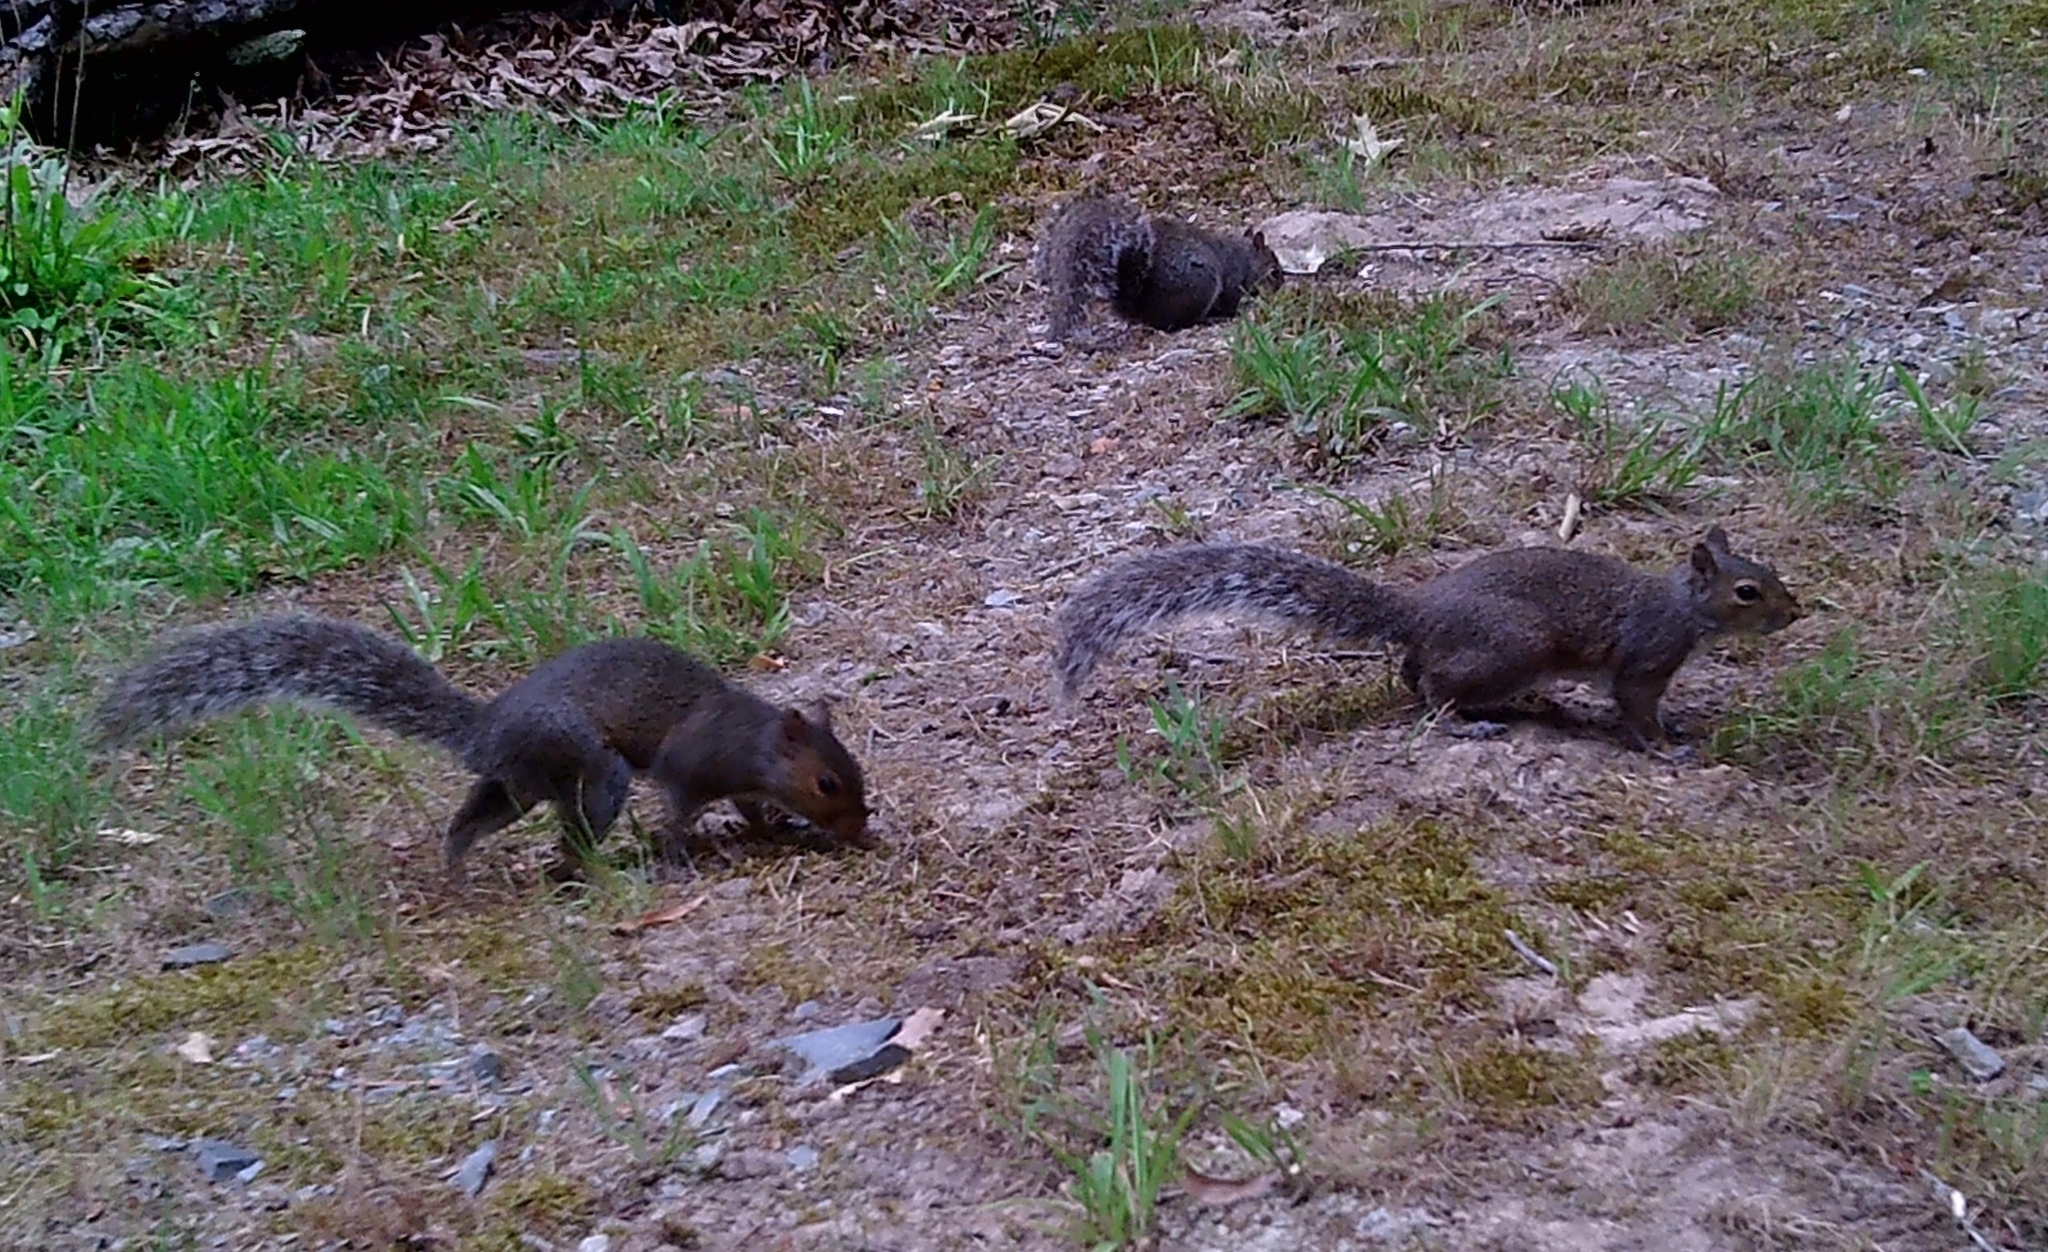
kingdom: Animalia
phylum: Chordata
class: Mammalia
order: Rodentia
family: Sciuridae
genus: Sciurus
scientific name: Sciurus carolinensis
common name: Eastern gray squirrel
